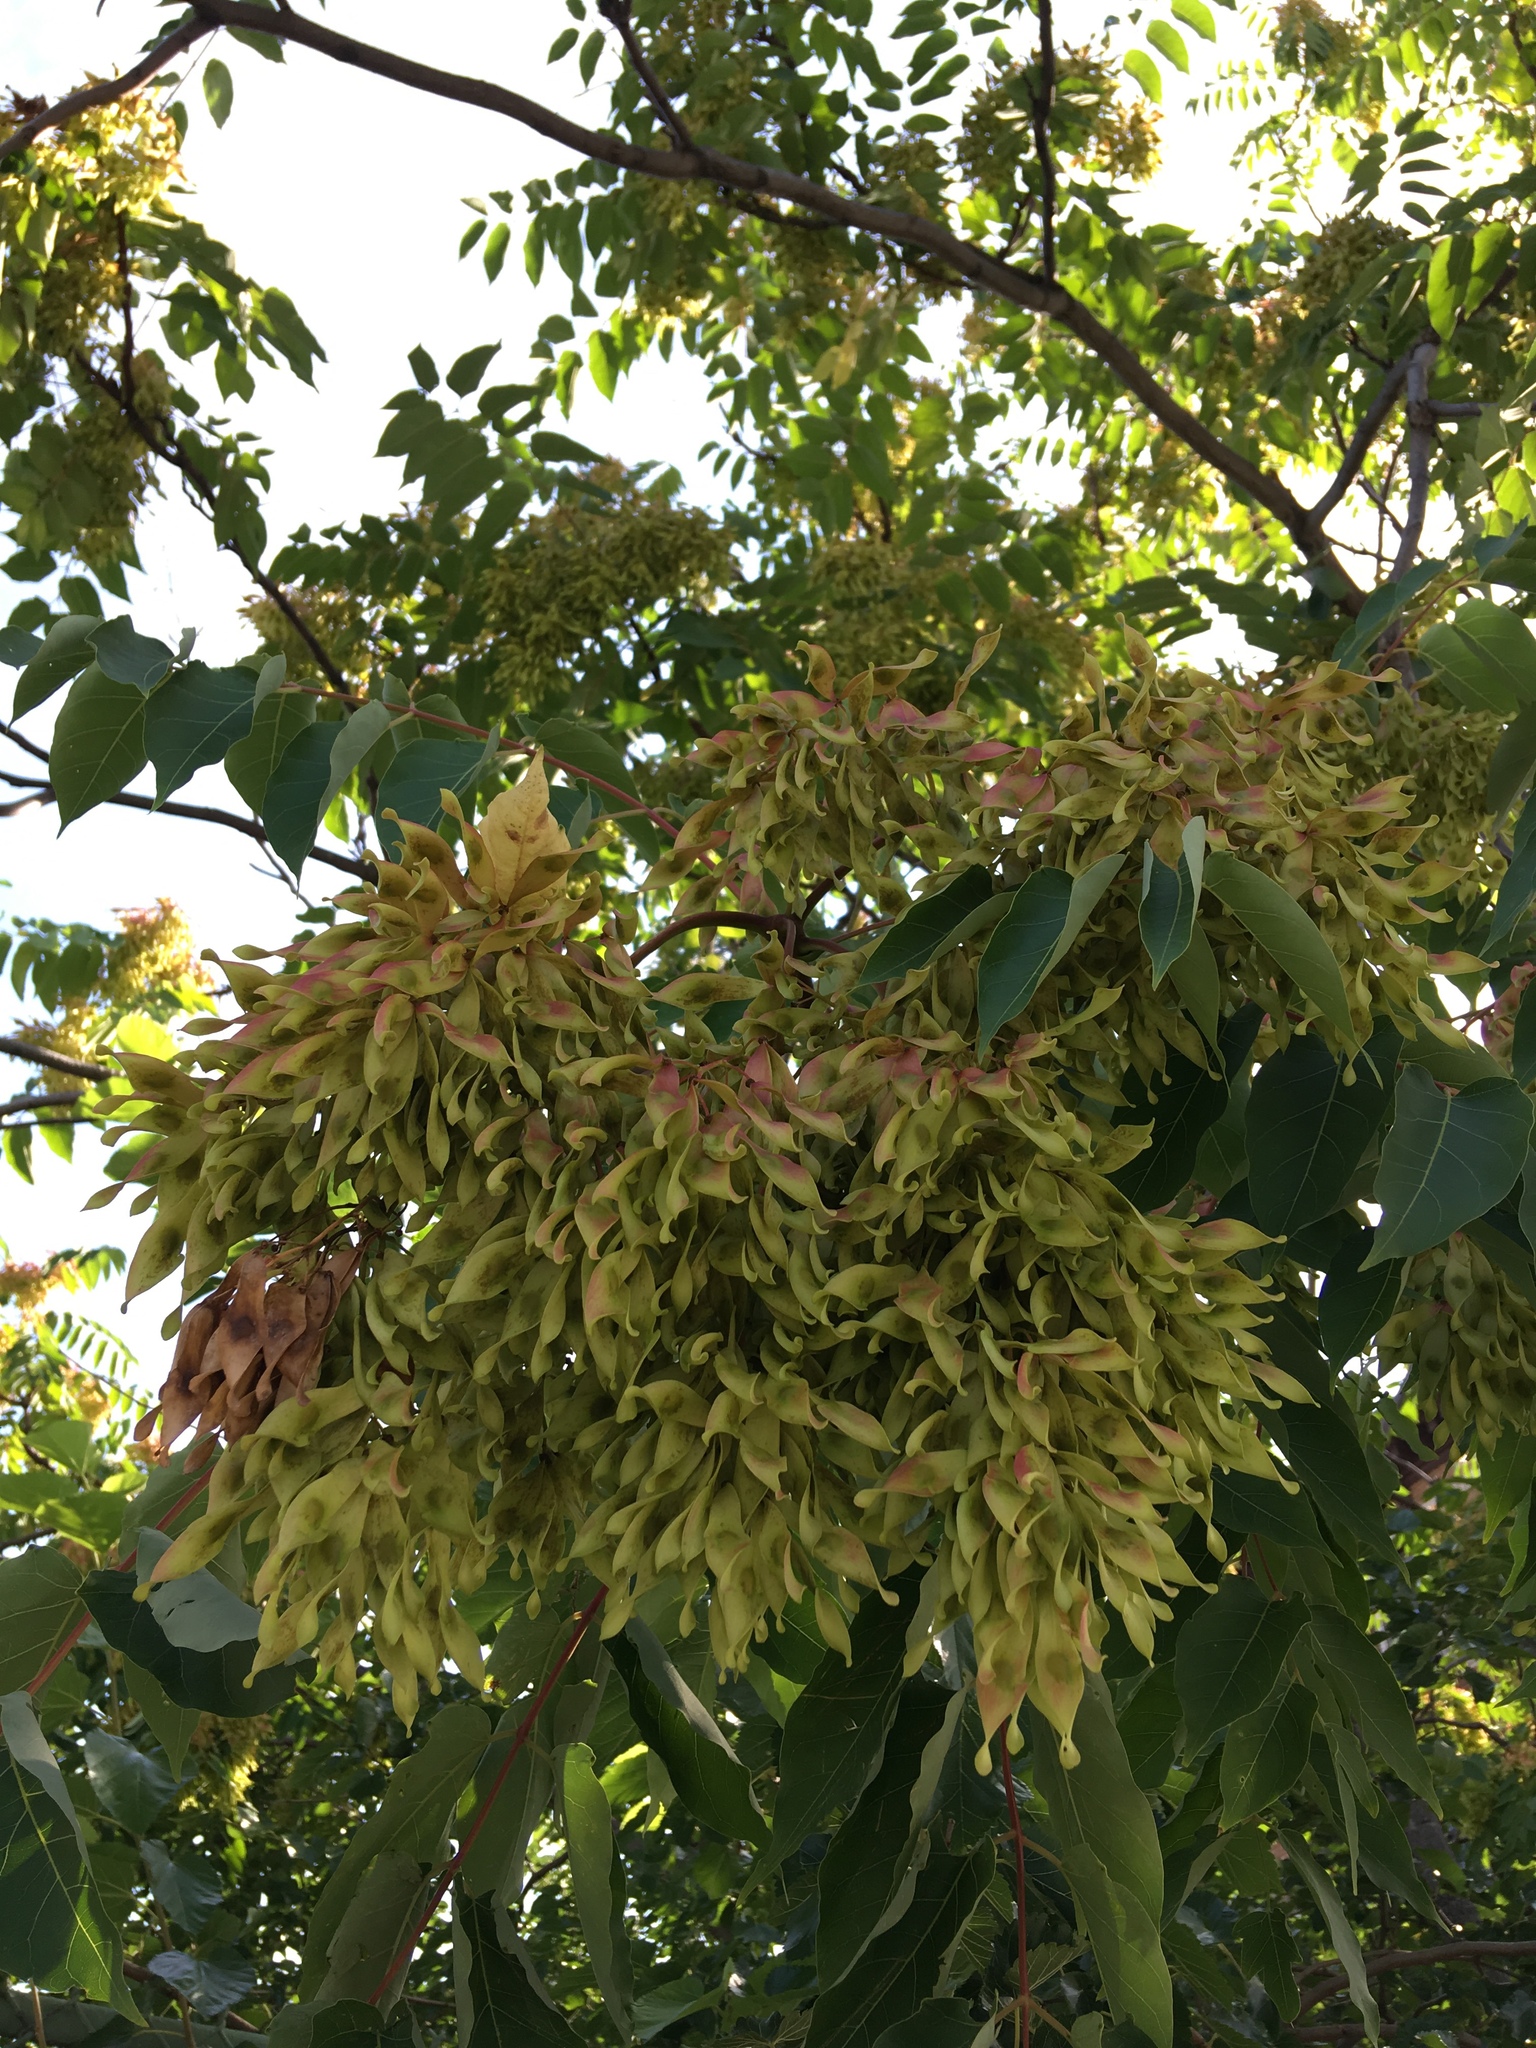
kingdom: Plantae
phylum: Tracheophyta
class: Magnoliopsida
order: Sapindales
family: Simaroubaceae
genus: Ailanthus
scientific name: Ailanthus altissima
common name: Tree-of-heaven
